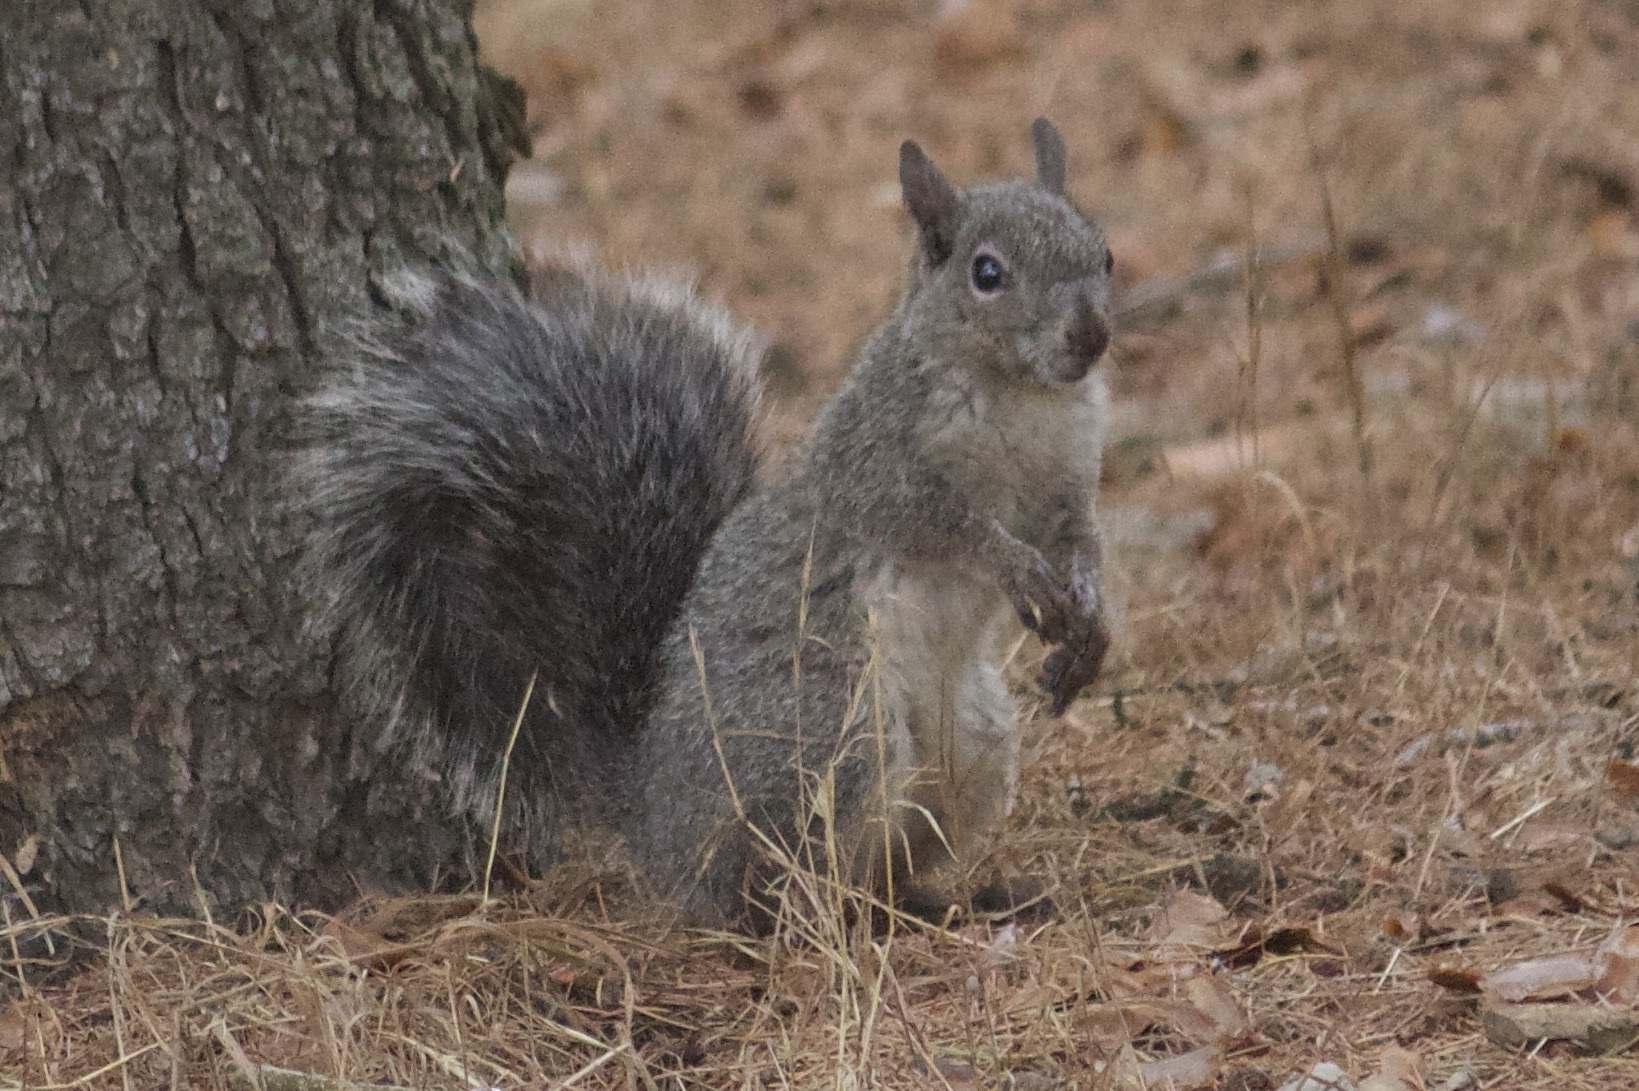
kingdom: Animalia
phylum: Chordata
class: Mammalia
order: Rodentia
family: Sciuridae
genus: Sciurus
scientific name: Sciurus griseus
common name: Western gray squirrel
